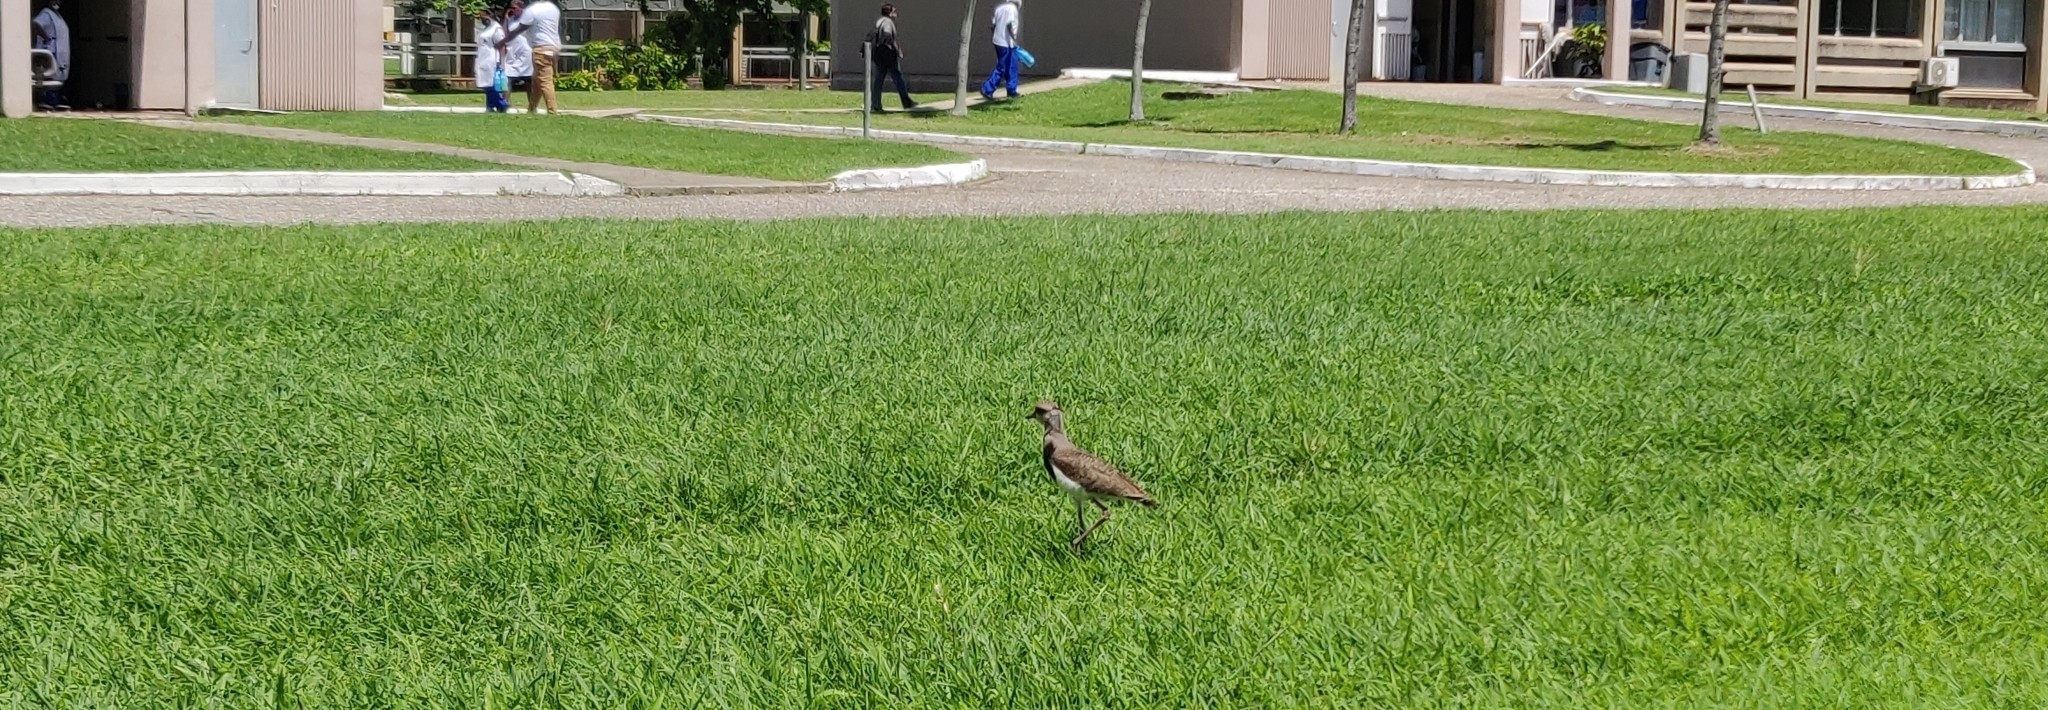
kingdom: Animalia
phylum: Chordata
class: Aves
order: Charadriiformes
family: Charadriidae
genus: Vanellus
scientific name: Vanellus chilensis
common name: Southern lapwing
